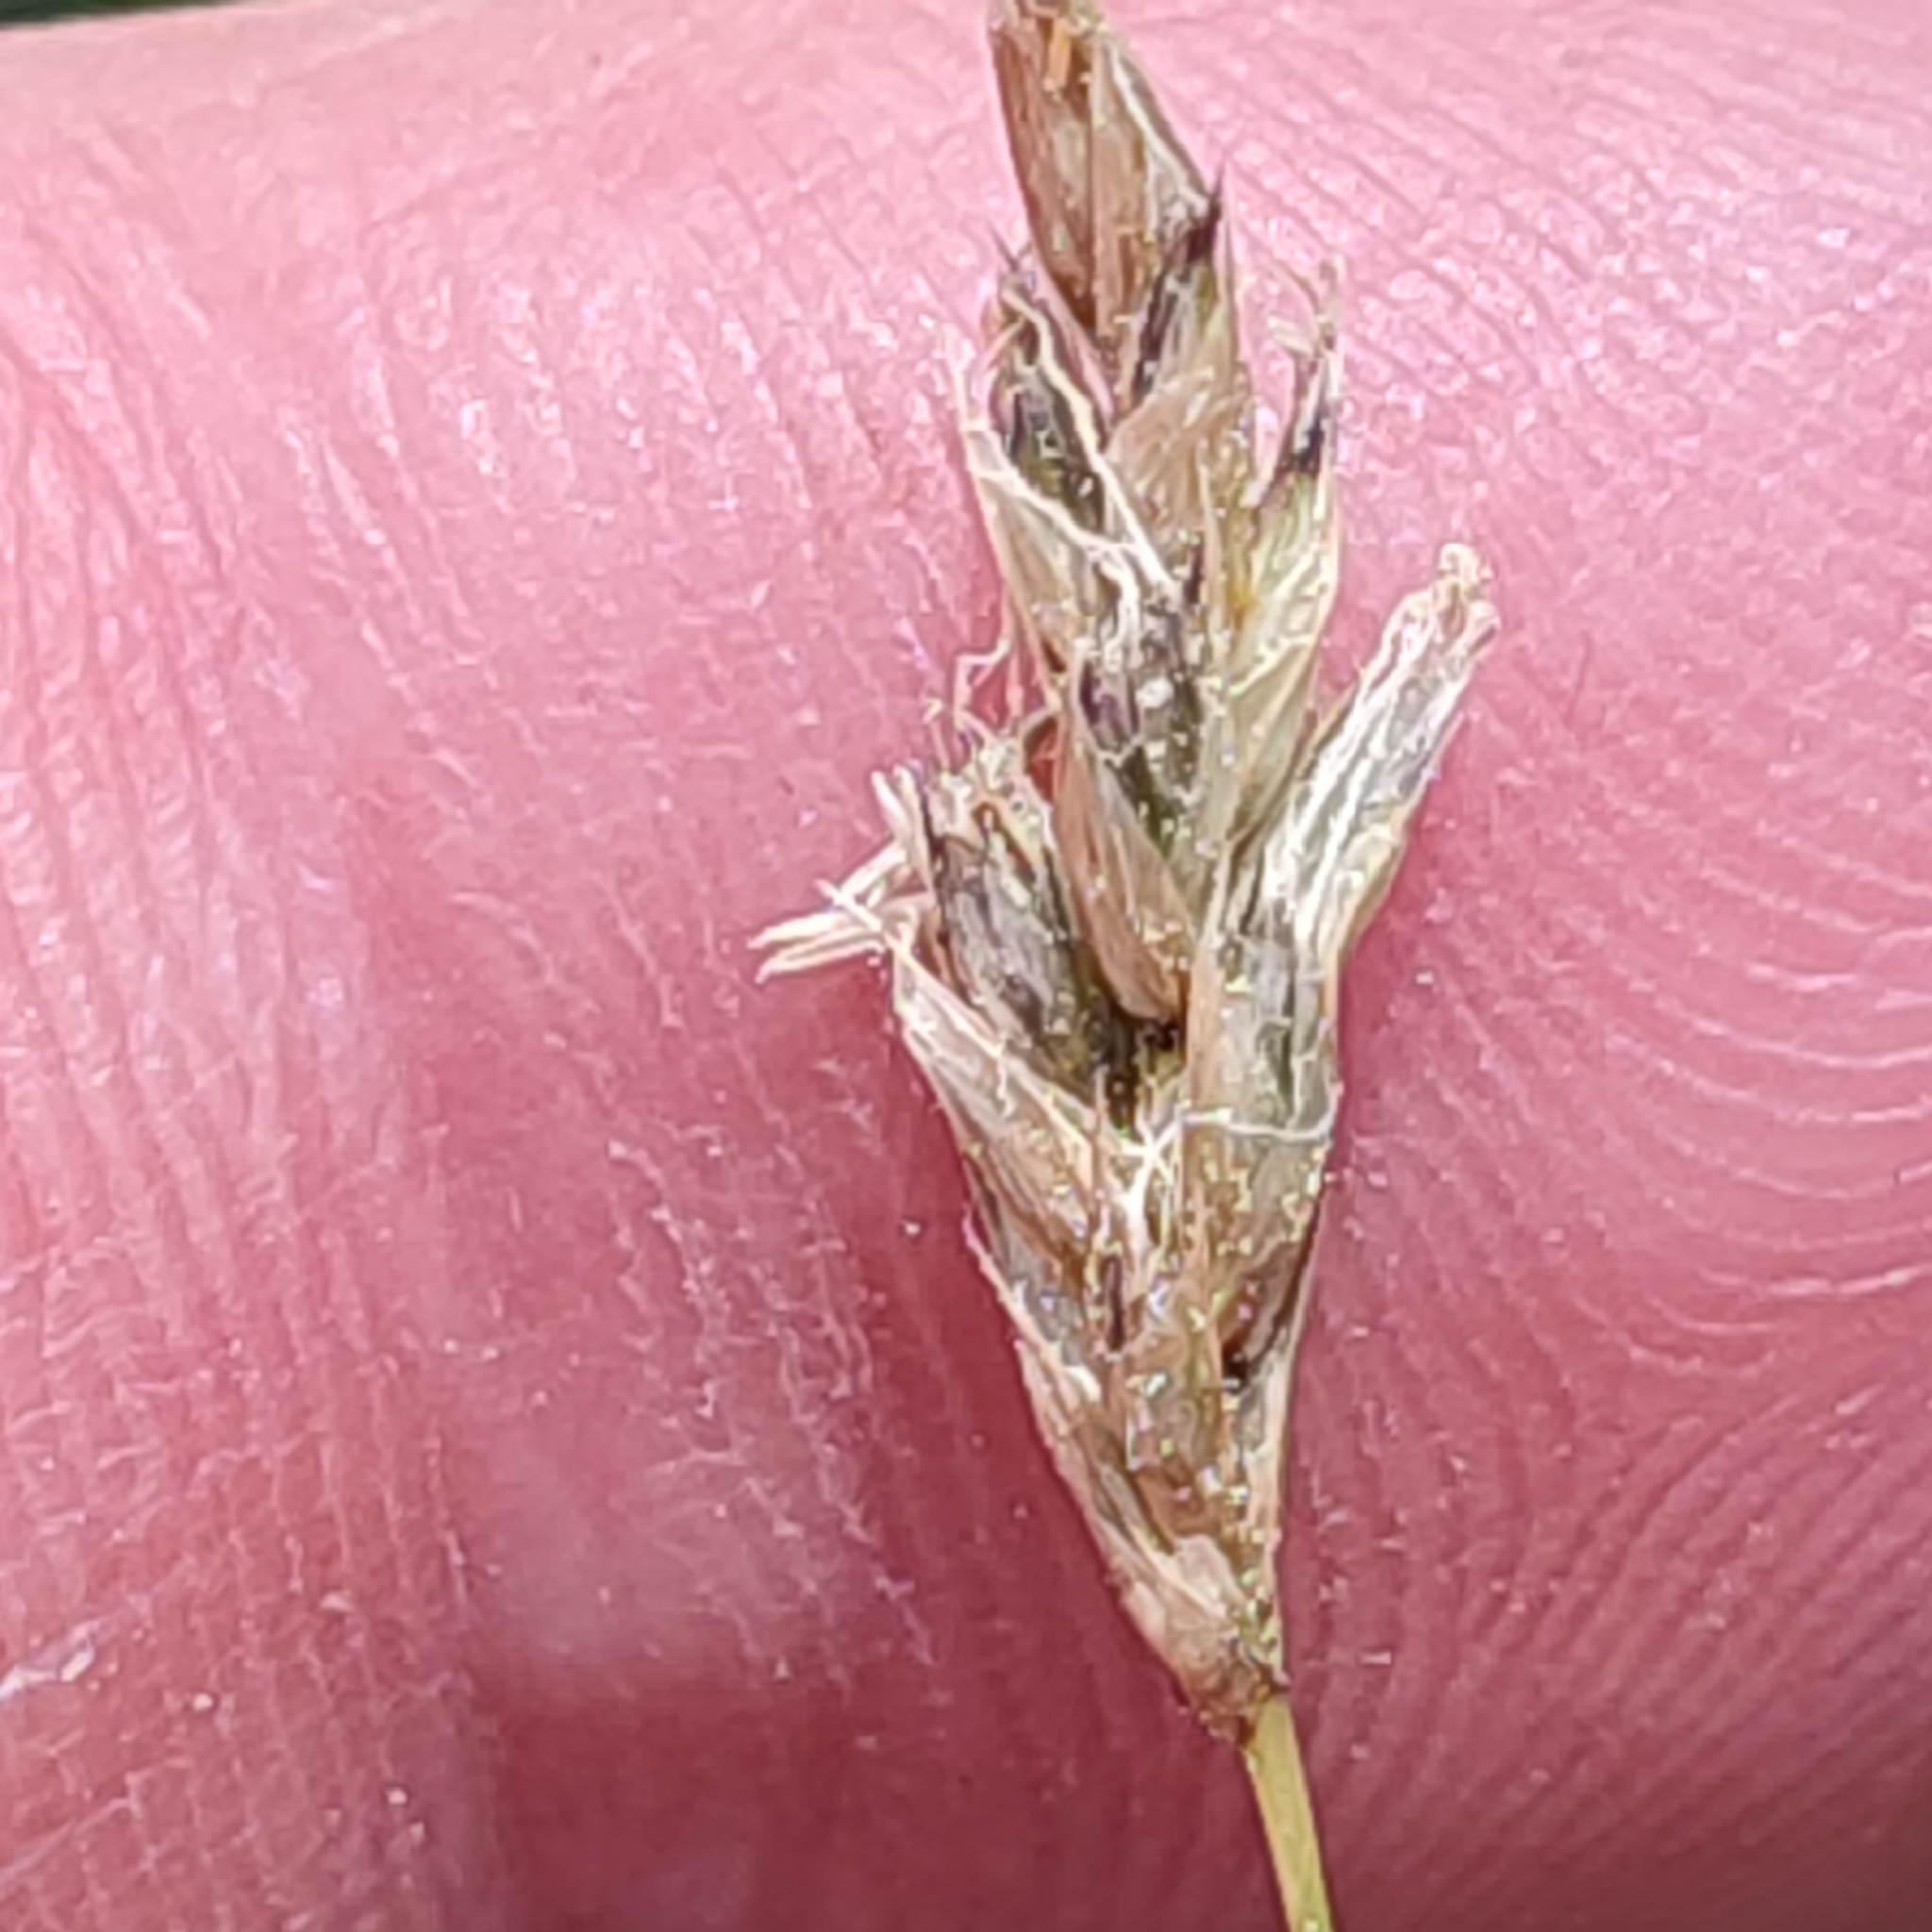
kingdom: Plantae
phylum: Tracheophyta
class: Liliopsida
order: Poales
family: Poaceae
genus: Sesleria
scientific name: Sesleria caerulea
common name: Blue moor-grass
